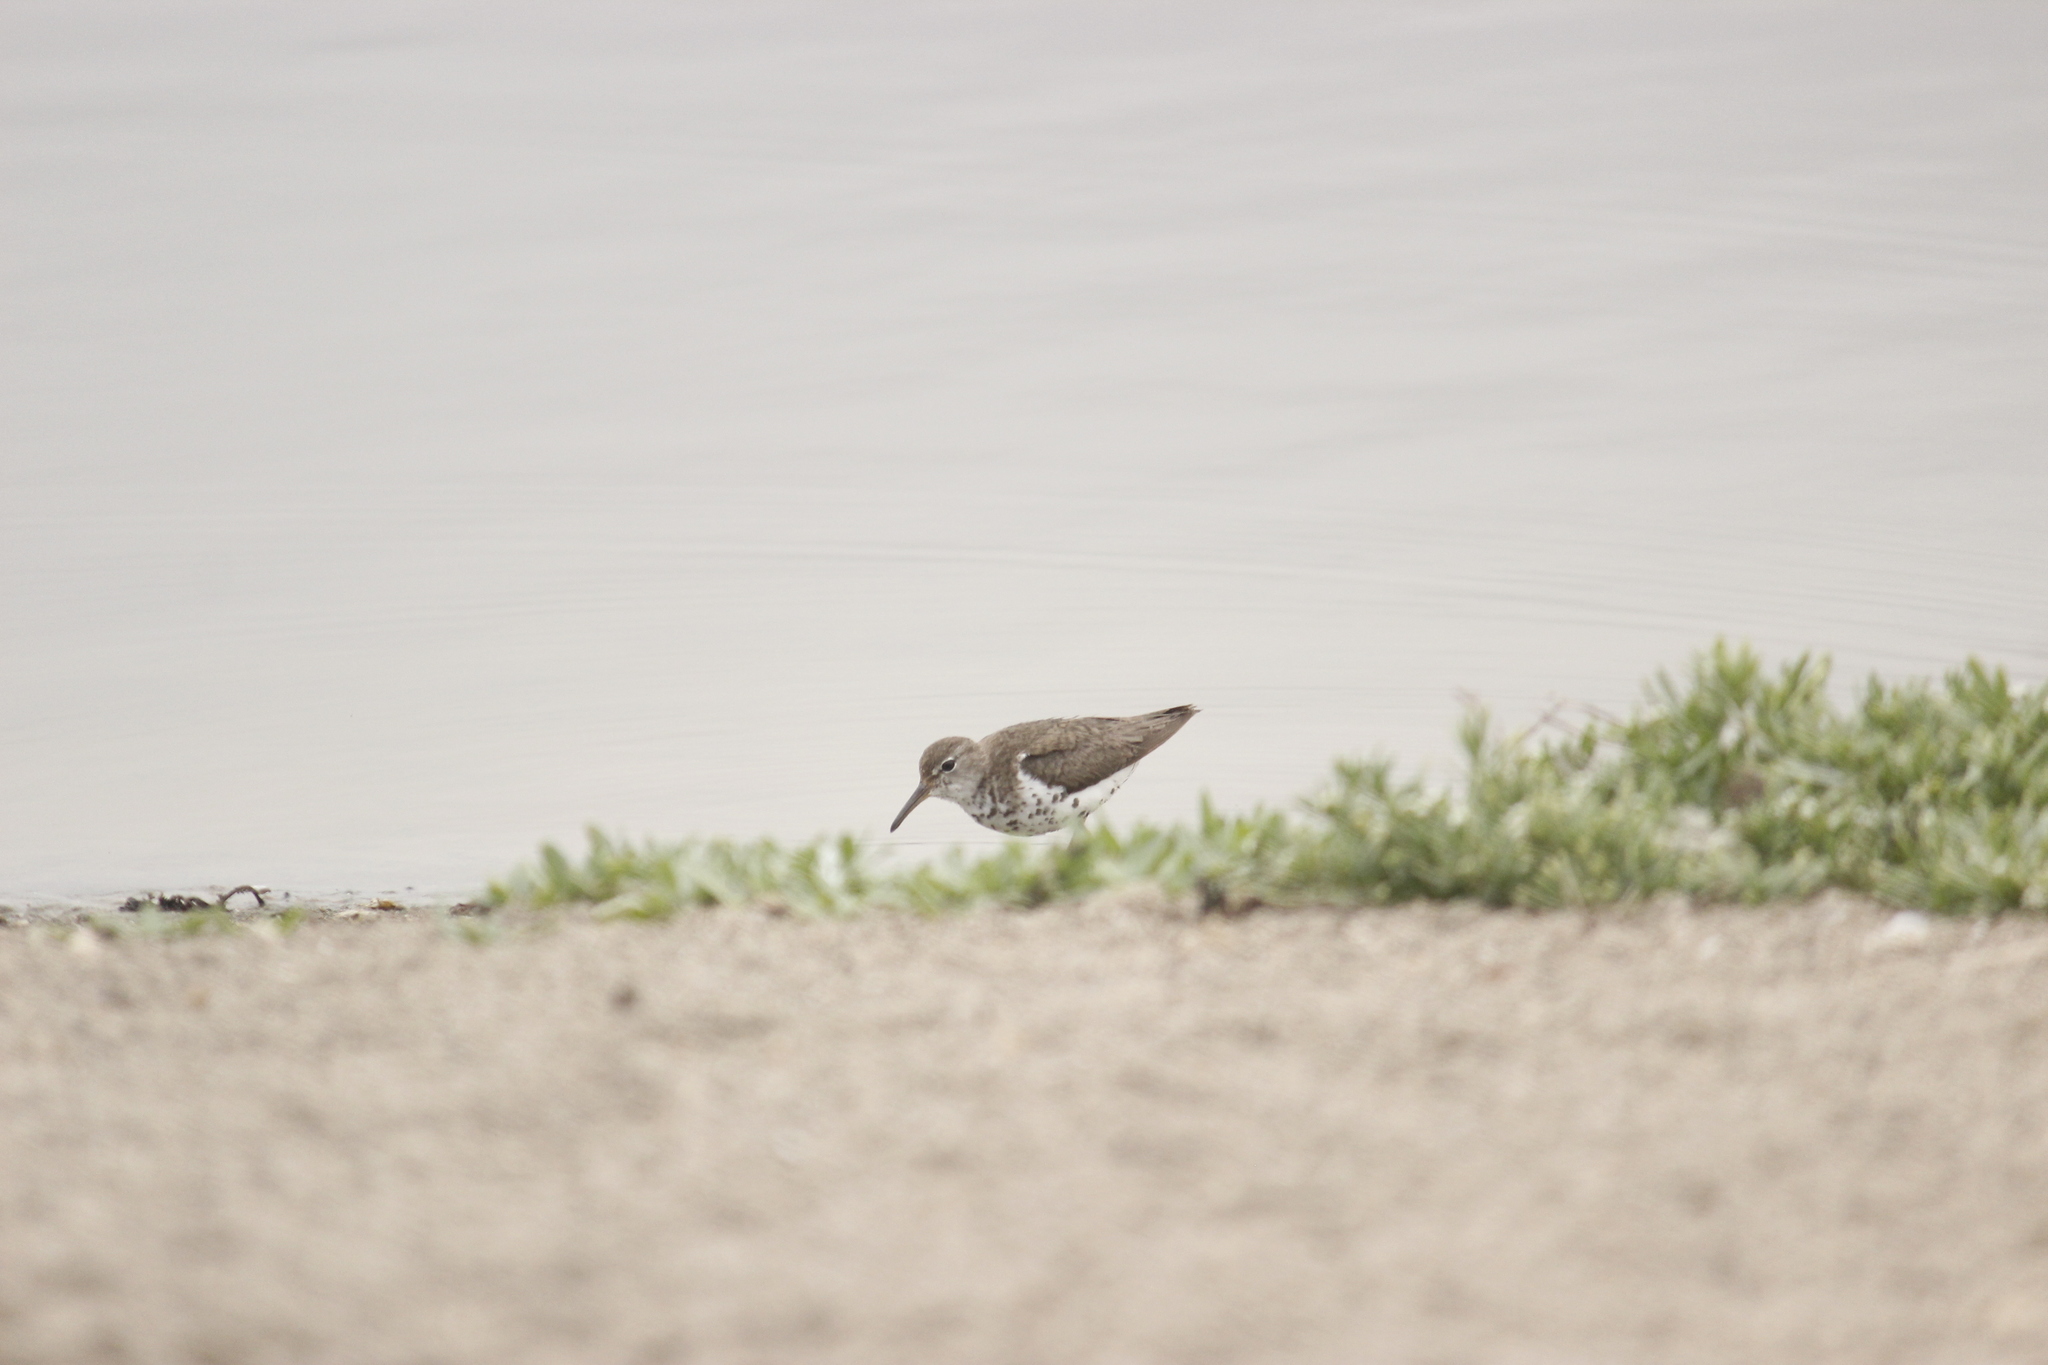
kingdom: Animalia
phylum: Chordata
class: Aves
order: Charadriiformes
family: Scolopacidae
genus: Actitis
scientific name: Actitis macularius
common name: Spotted sandpiper
